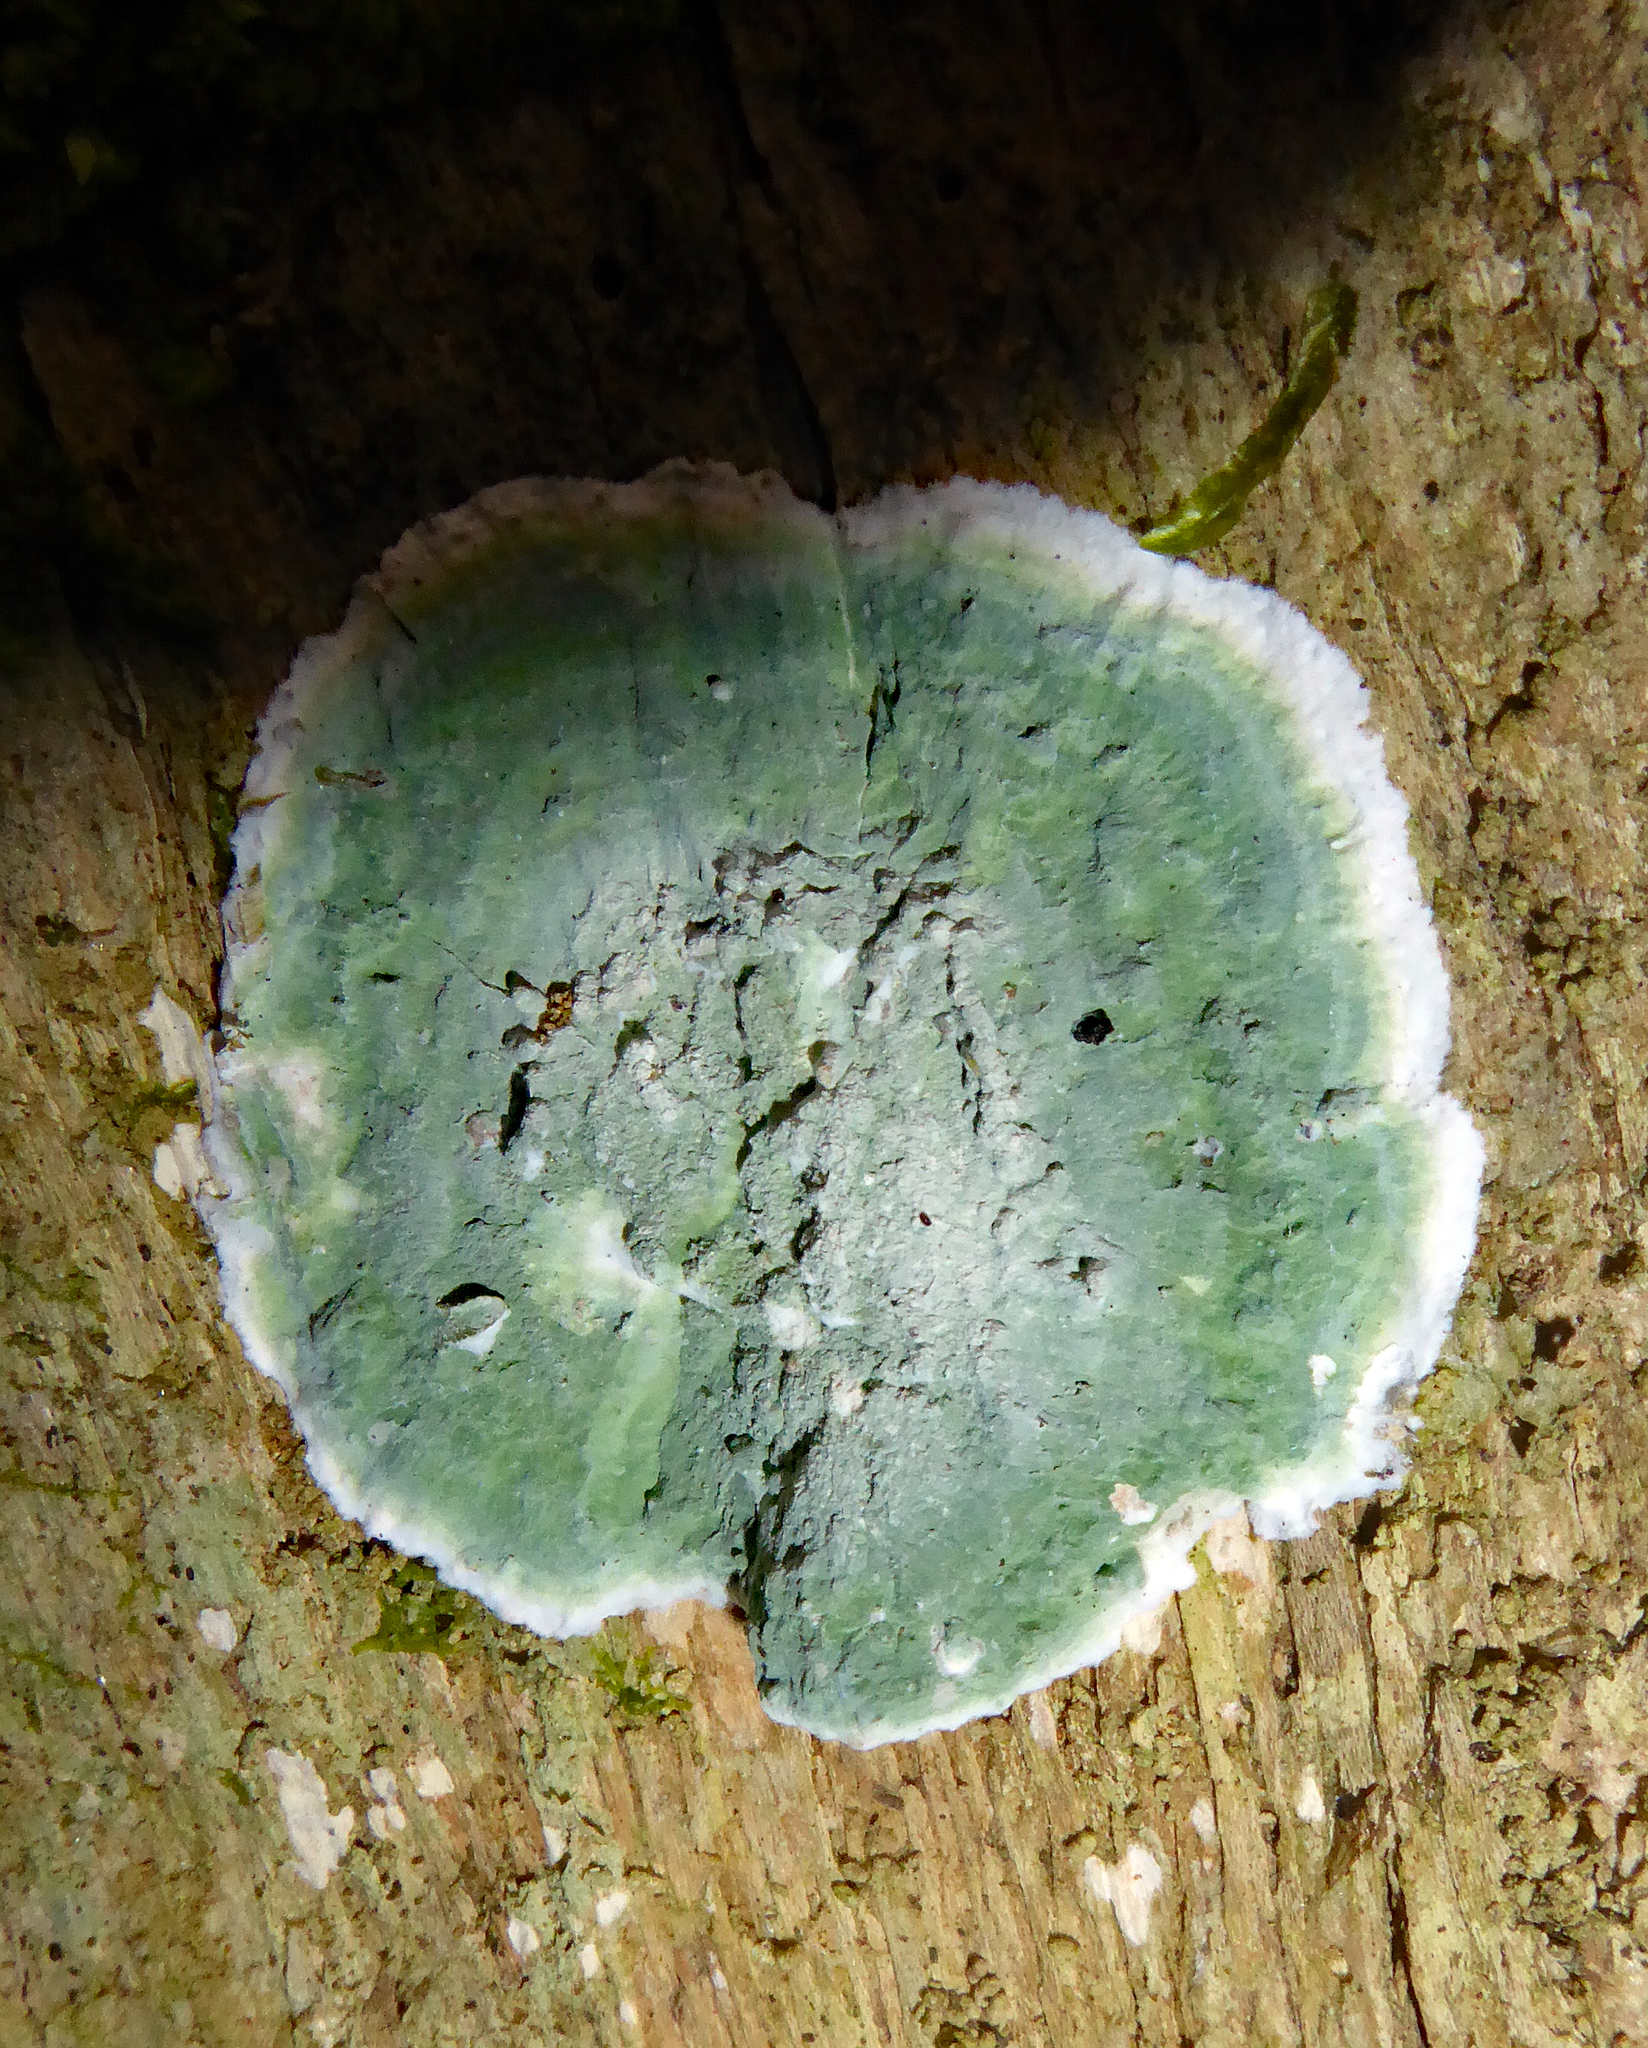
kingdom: Fungi
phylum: Ascomycota
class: Arthoniomycetes
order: Arthoniales
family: Arthoniaceae
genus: Cryptothecia
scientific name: Cryptothecia
